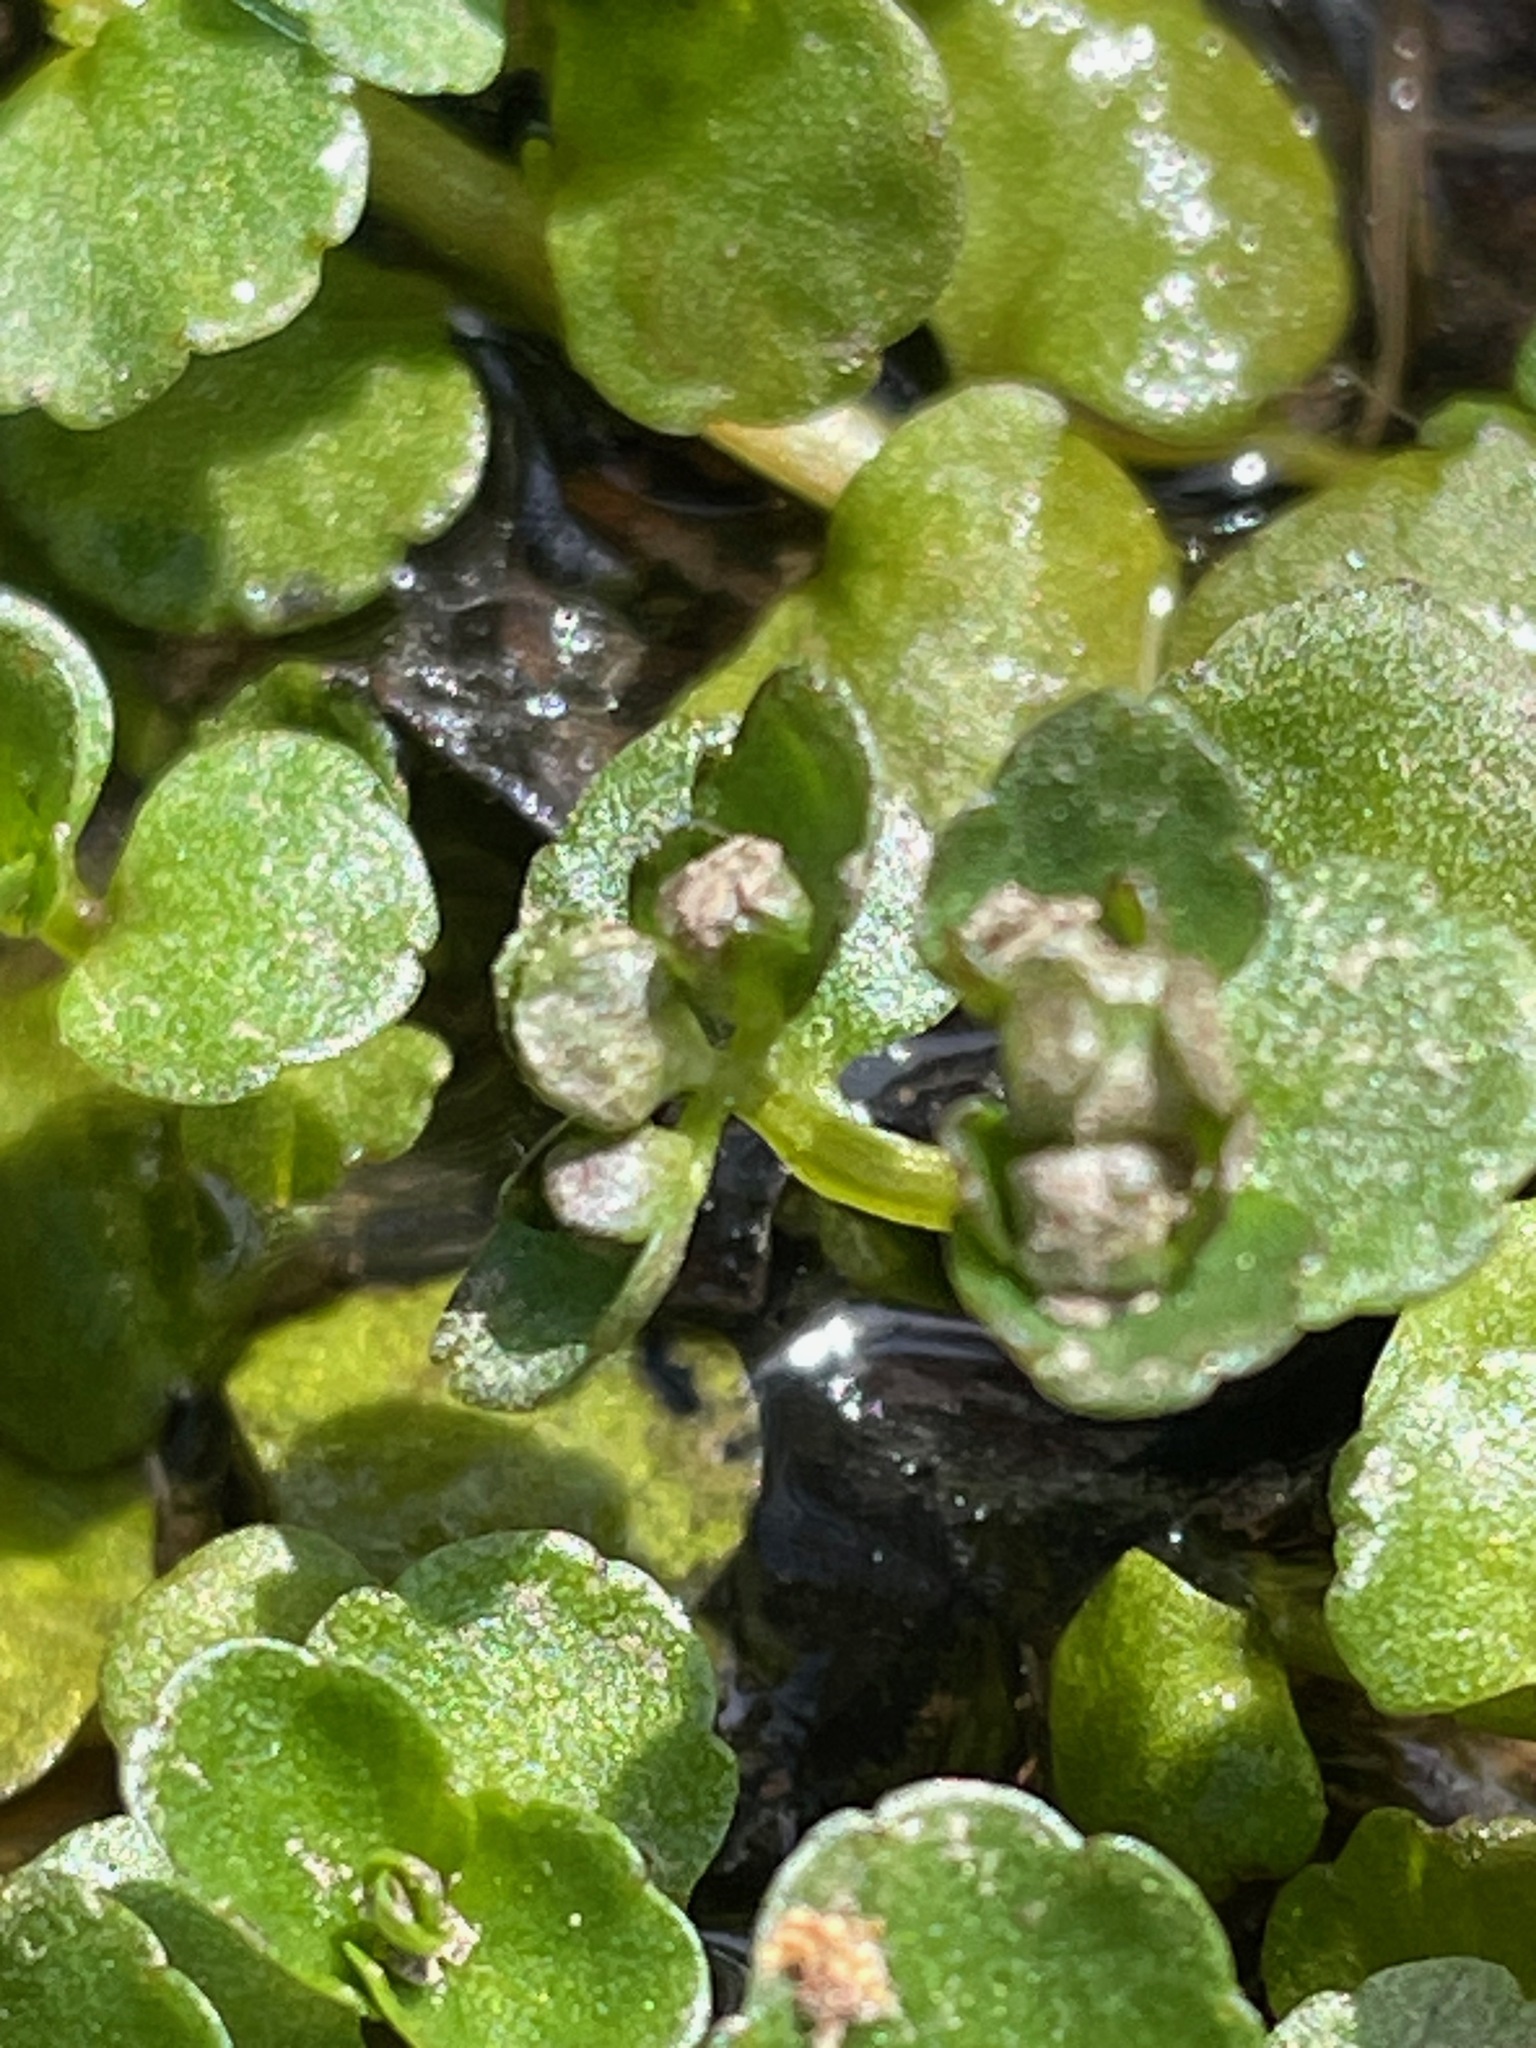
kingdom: Plantae
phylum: Tracheophyta
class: Magnoliopsida
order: Saxifragales
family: Saxifragaceae
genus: Chrysosplenium
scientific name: Chrysosplenium americanum
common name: American golden-saxifrage
